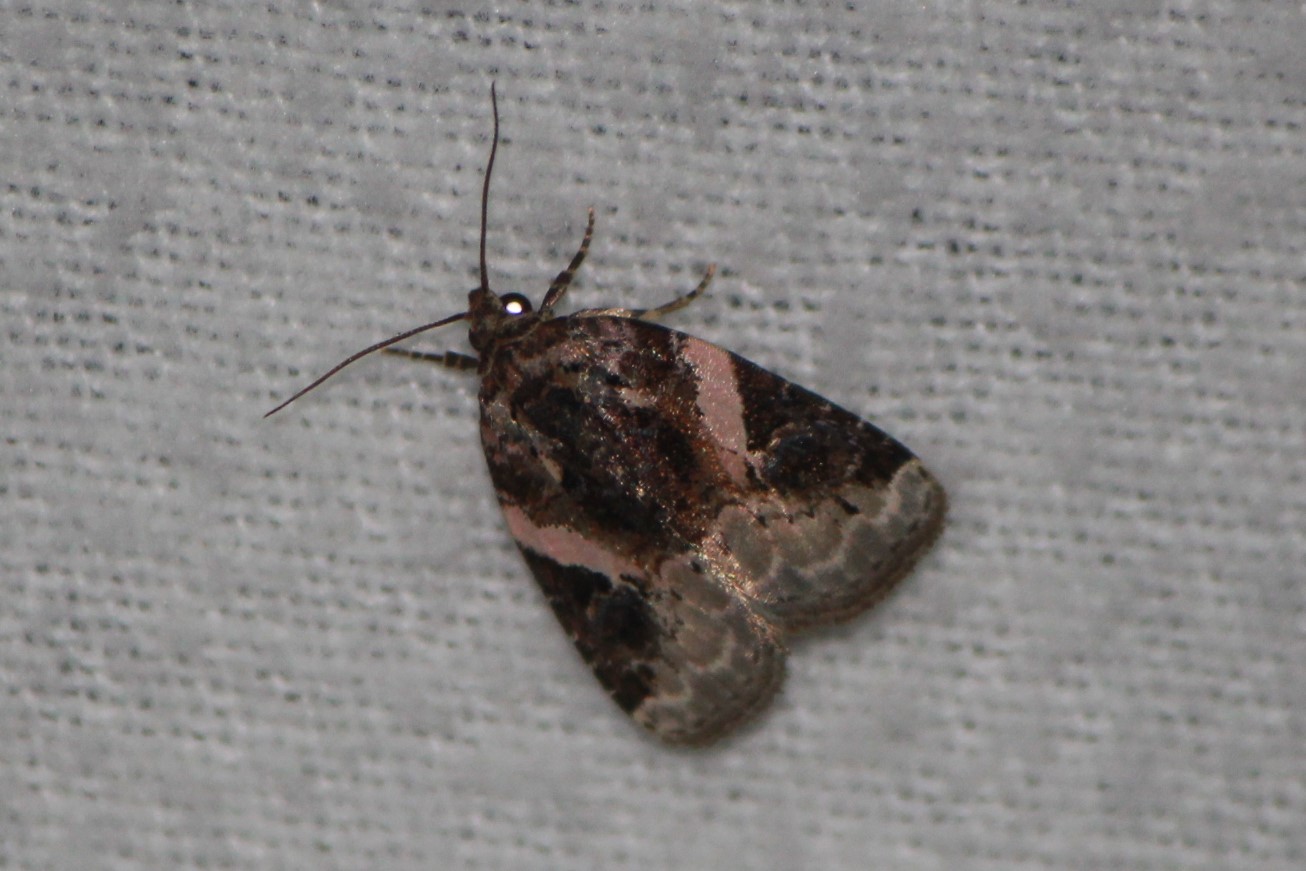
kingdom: Animalia
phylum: Arthropoda
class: Insecta
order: Lepidoptera
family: Noctuidae
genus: Pseudeustrotia
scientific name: Pseudeustrotia carneola
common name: Pink-barred lithacodia moth
